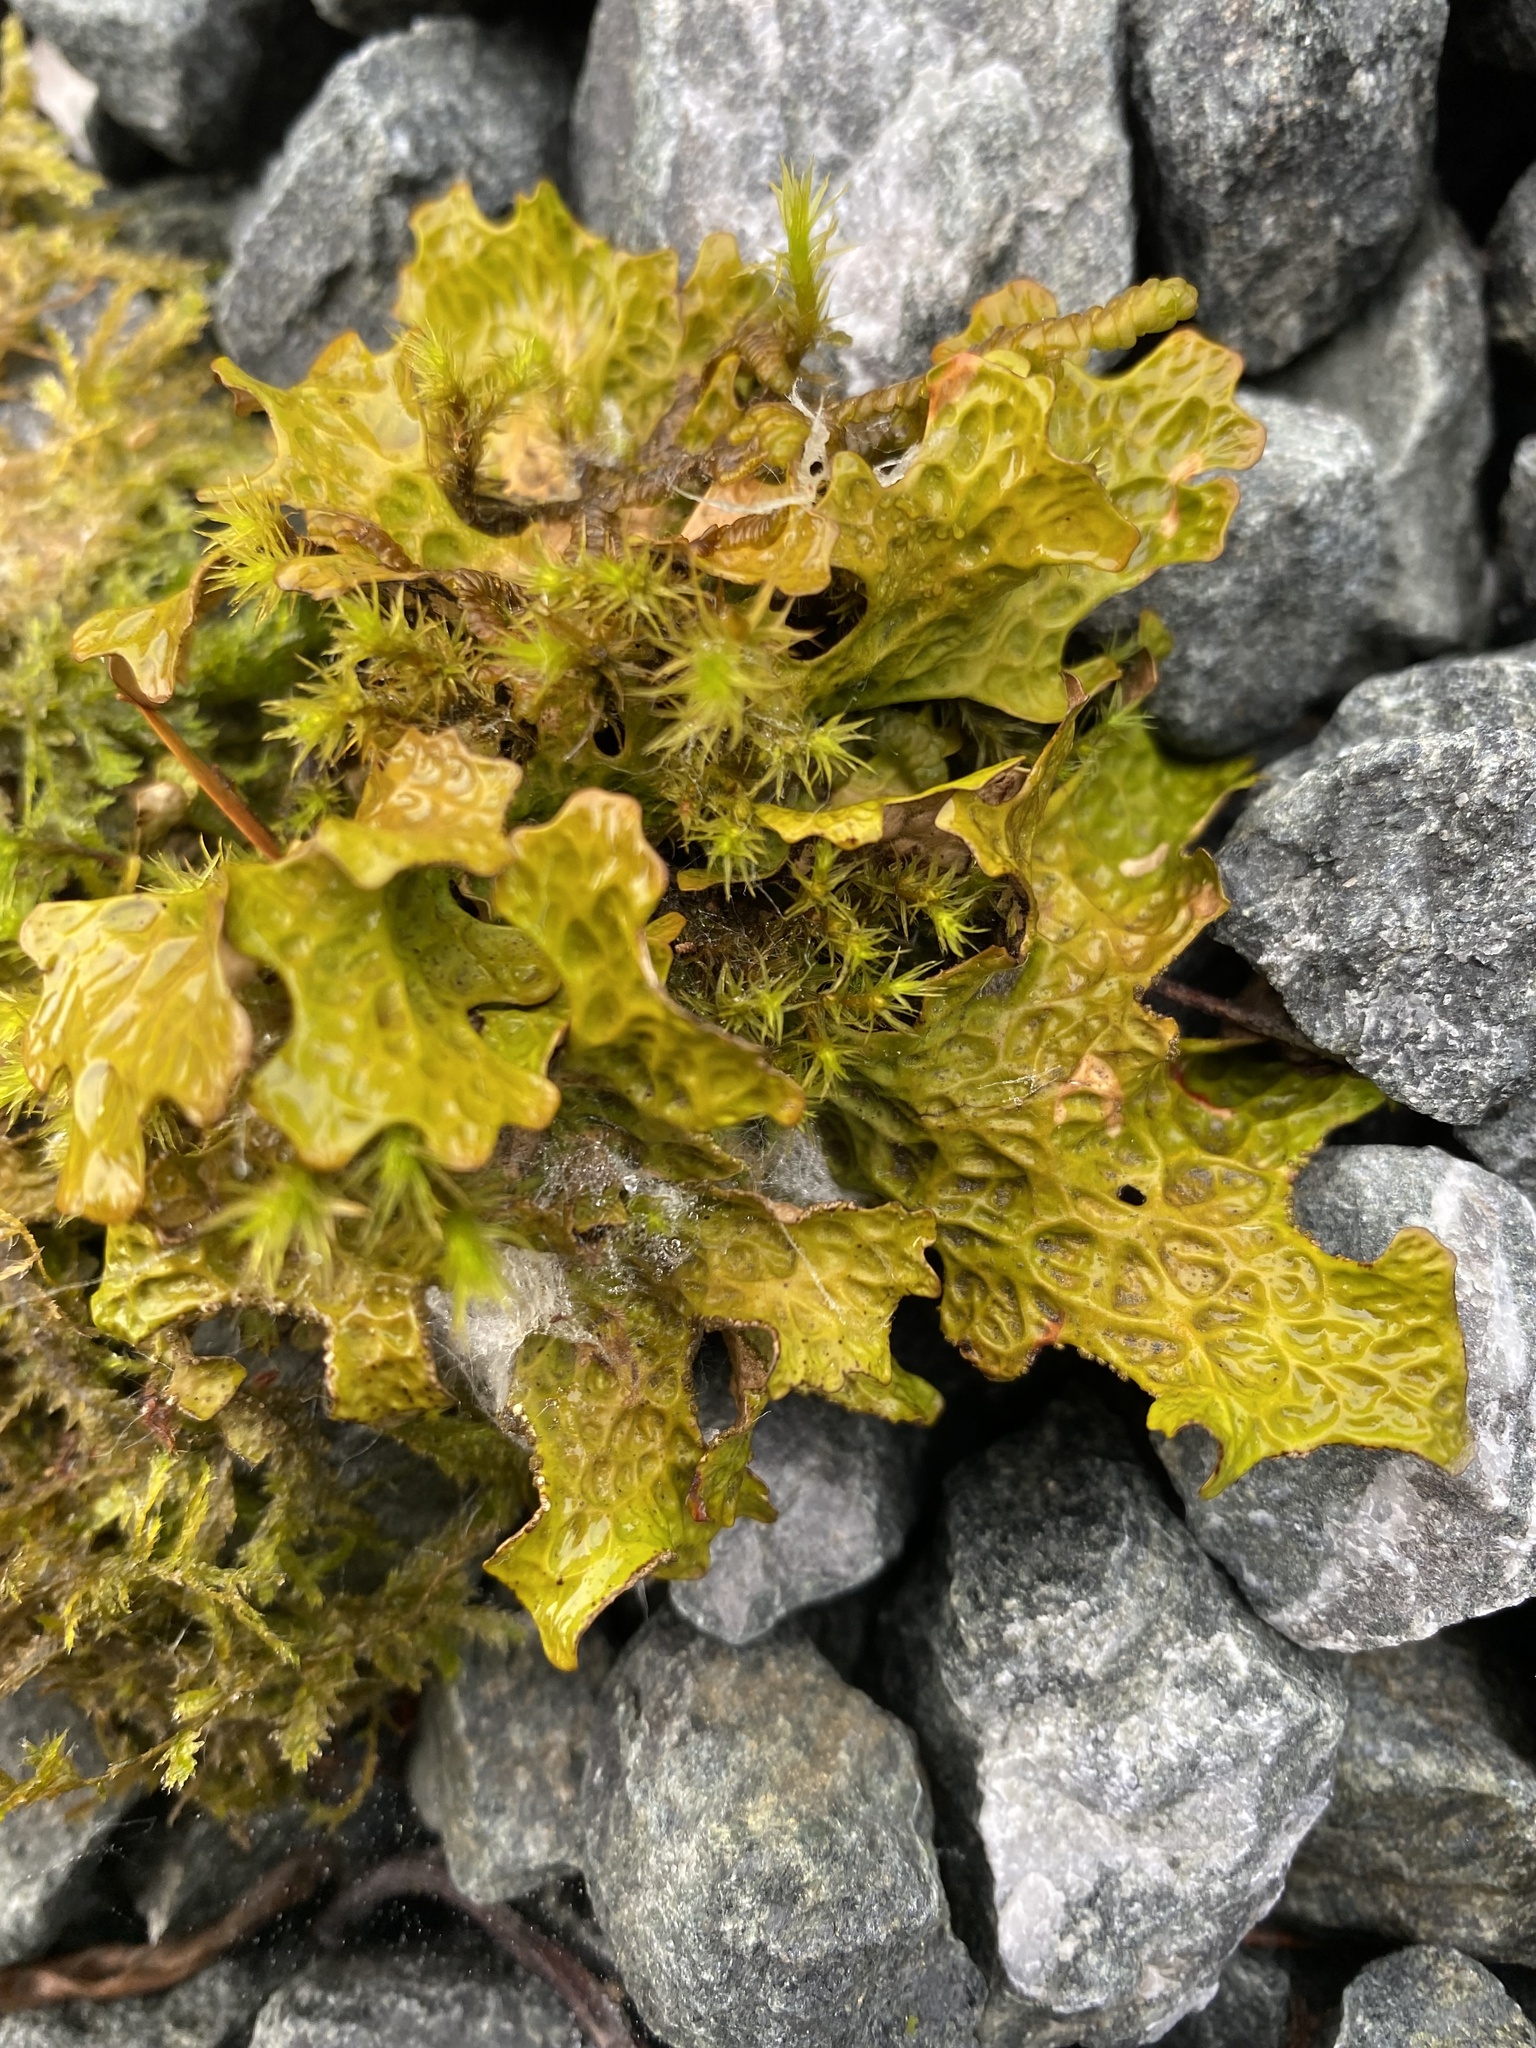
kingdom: Fungi
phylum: Ascomycota
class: Lecanoromycetes
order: Peltigerales
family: Lobariaceae
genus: Lobaria
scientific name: Lobaria pulmonaria
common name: Lungwort
